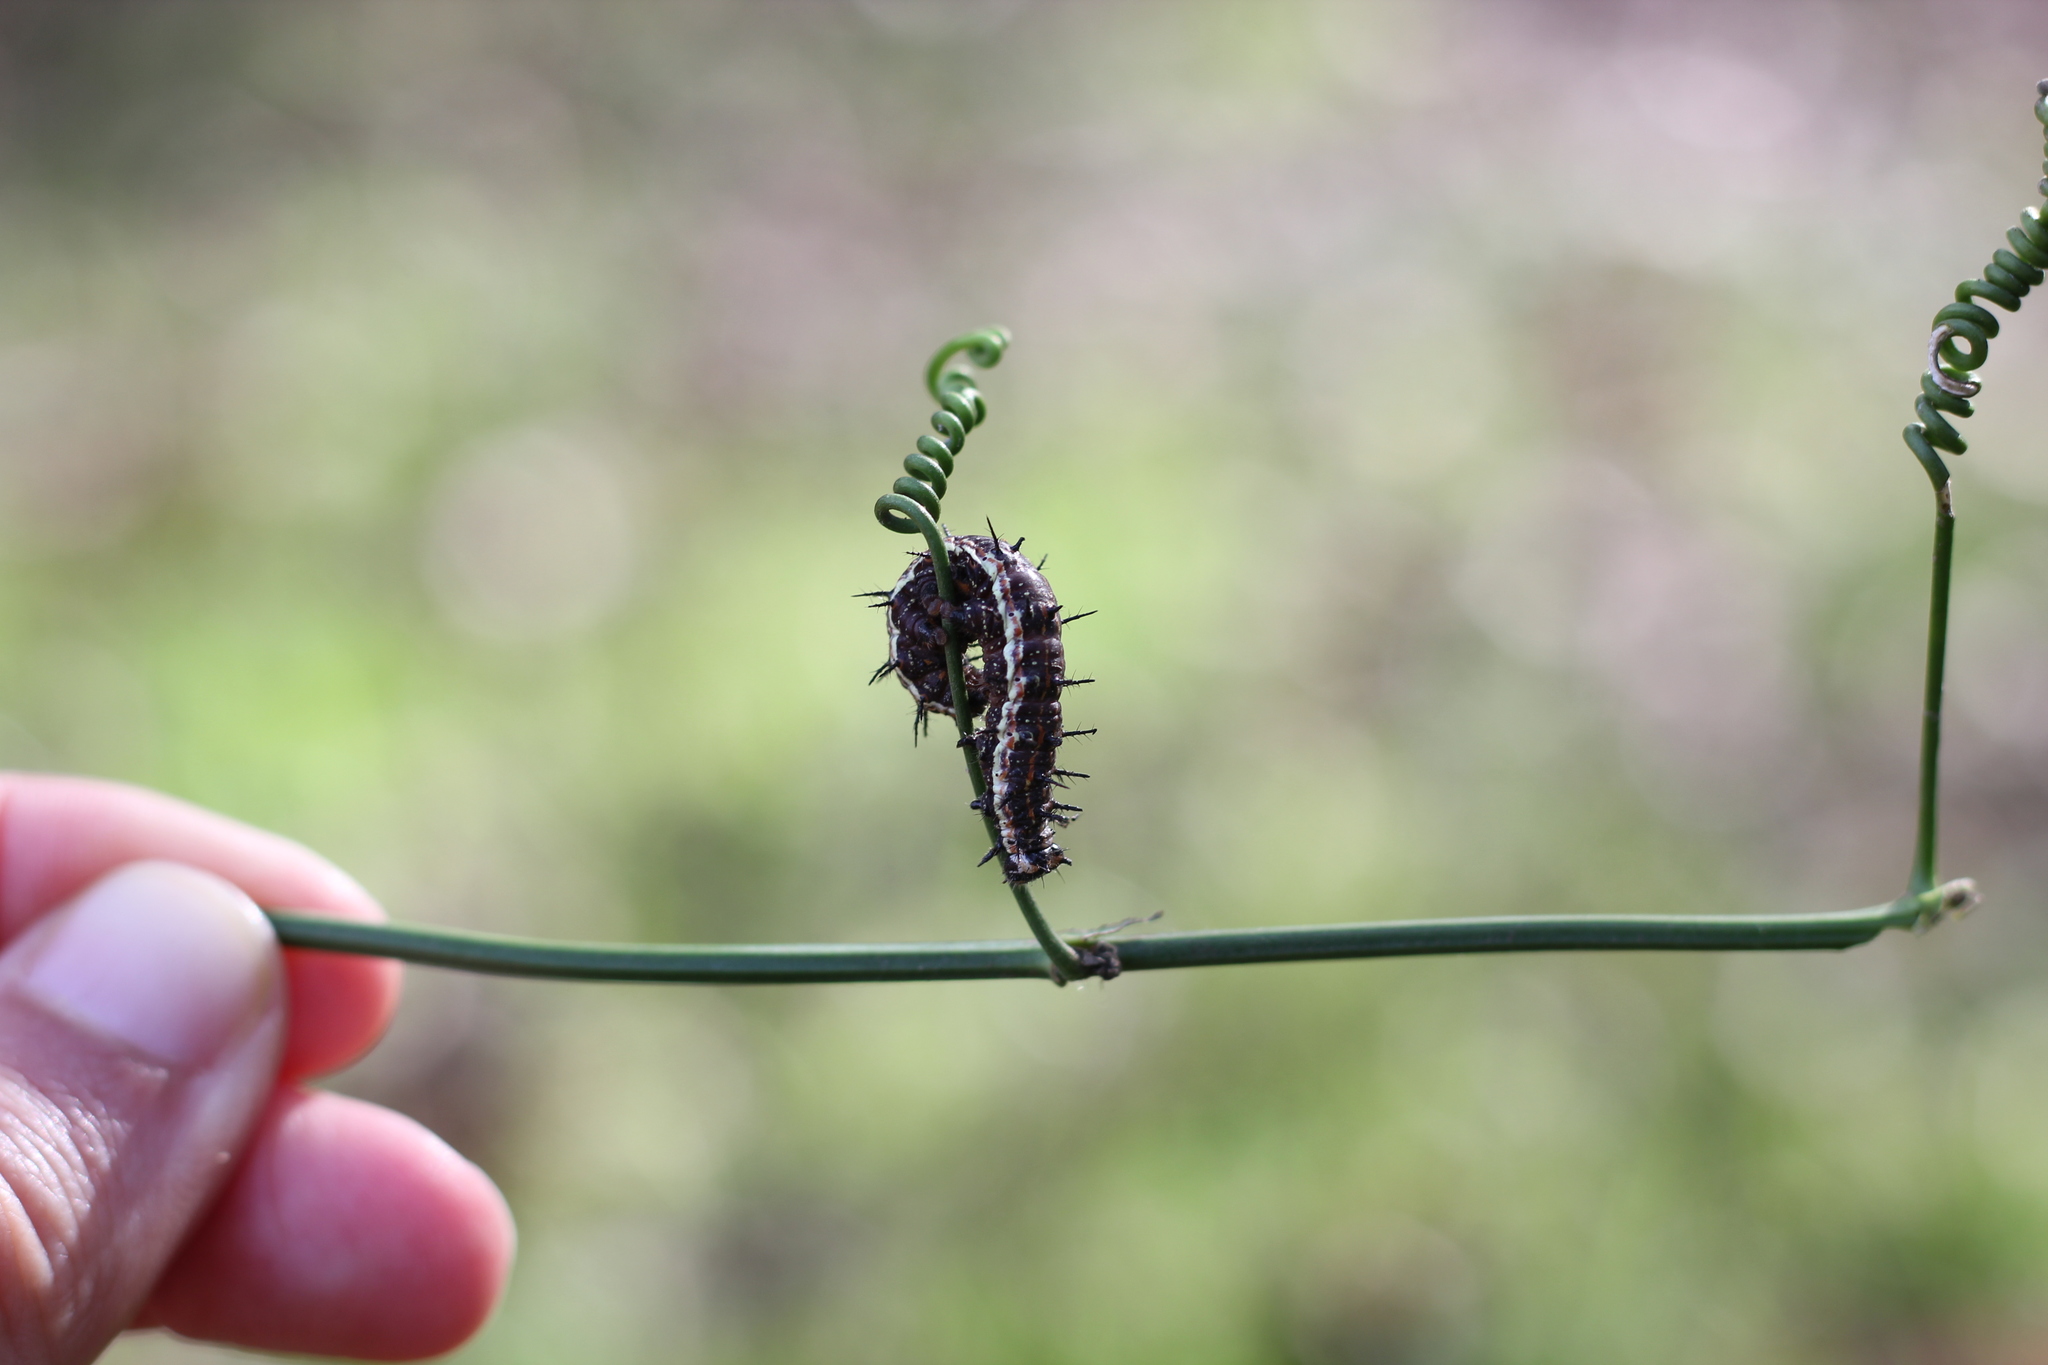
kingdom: Animalia
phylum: Arthropoda
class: Insecta
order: Lepidoptera
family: Nymphalidae
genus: Dione
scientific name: Dione vanillae
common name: Gulf fritillary
